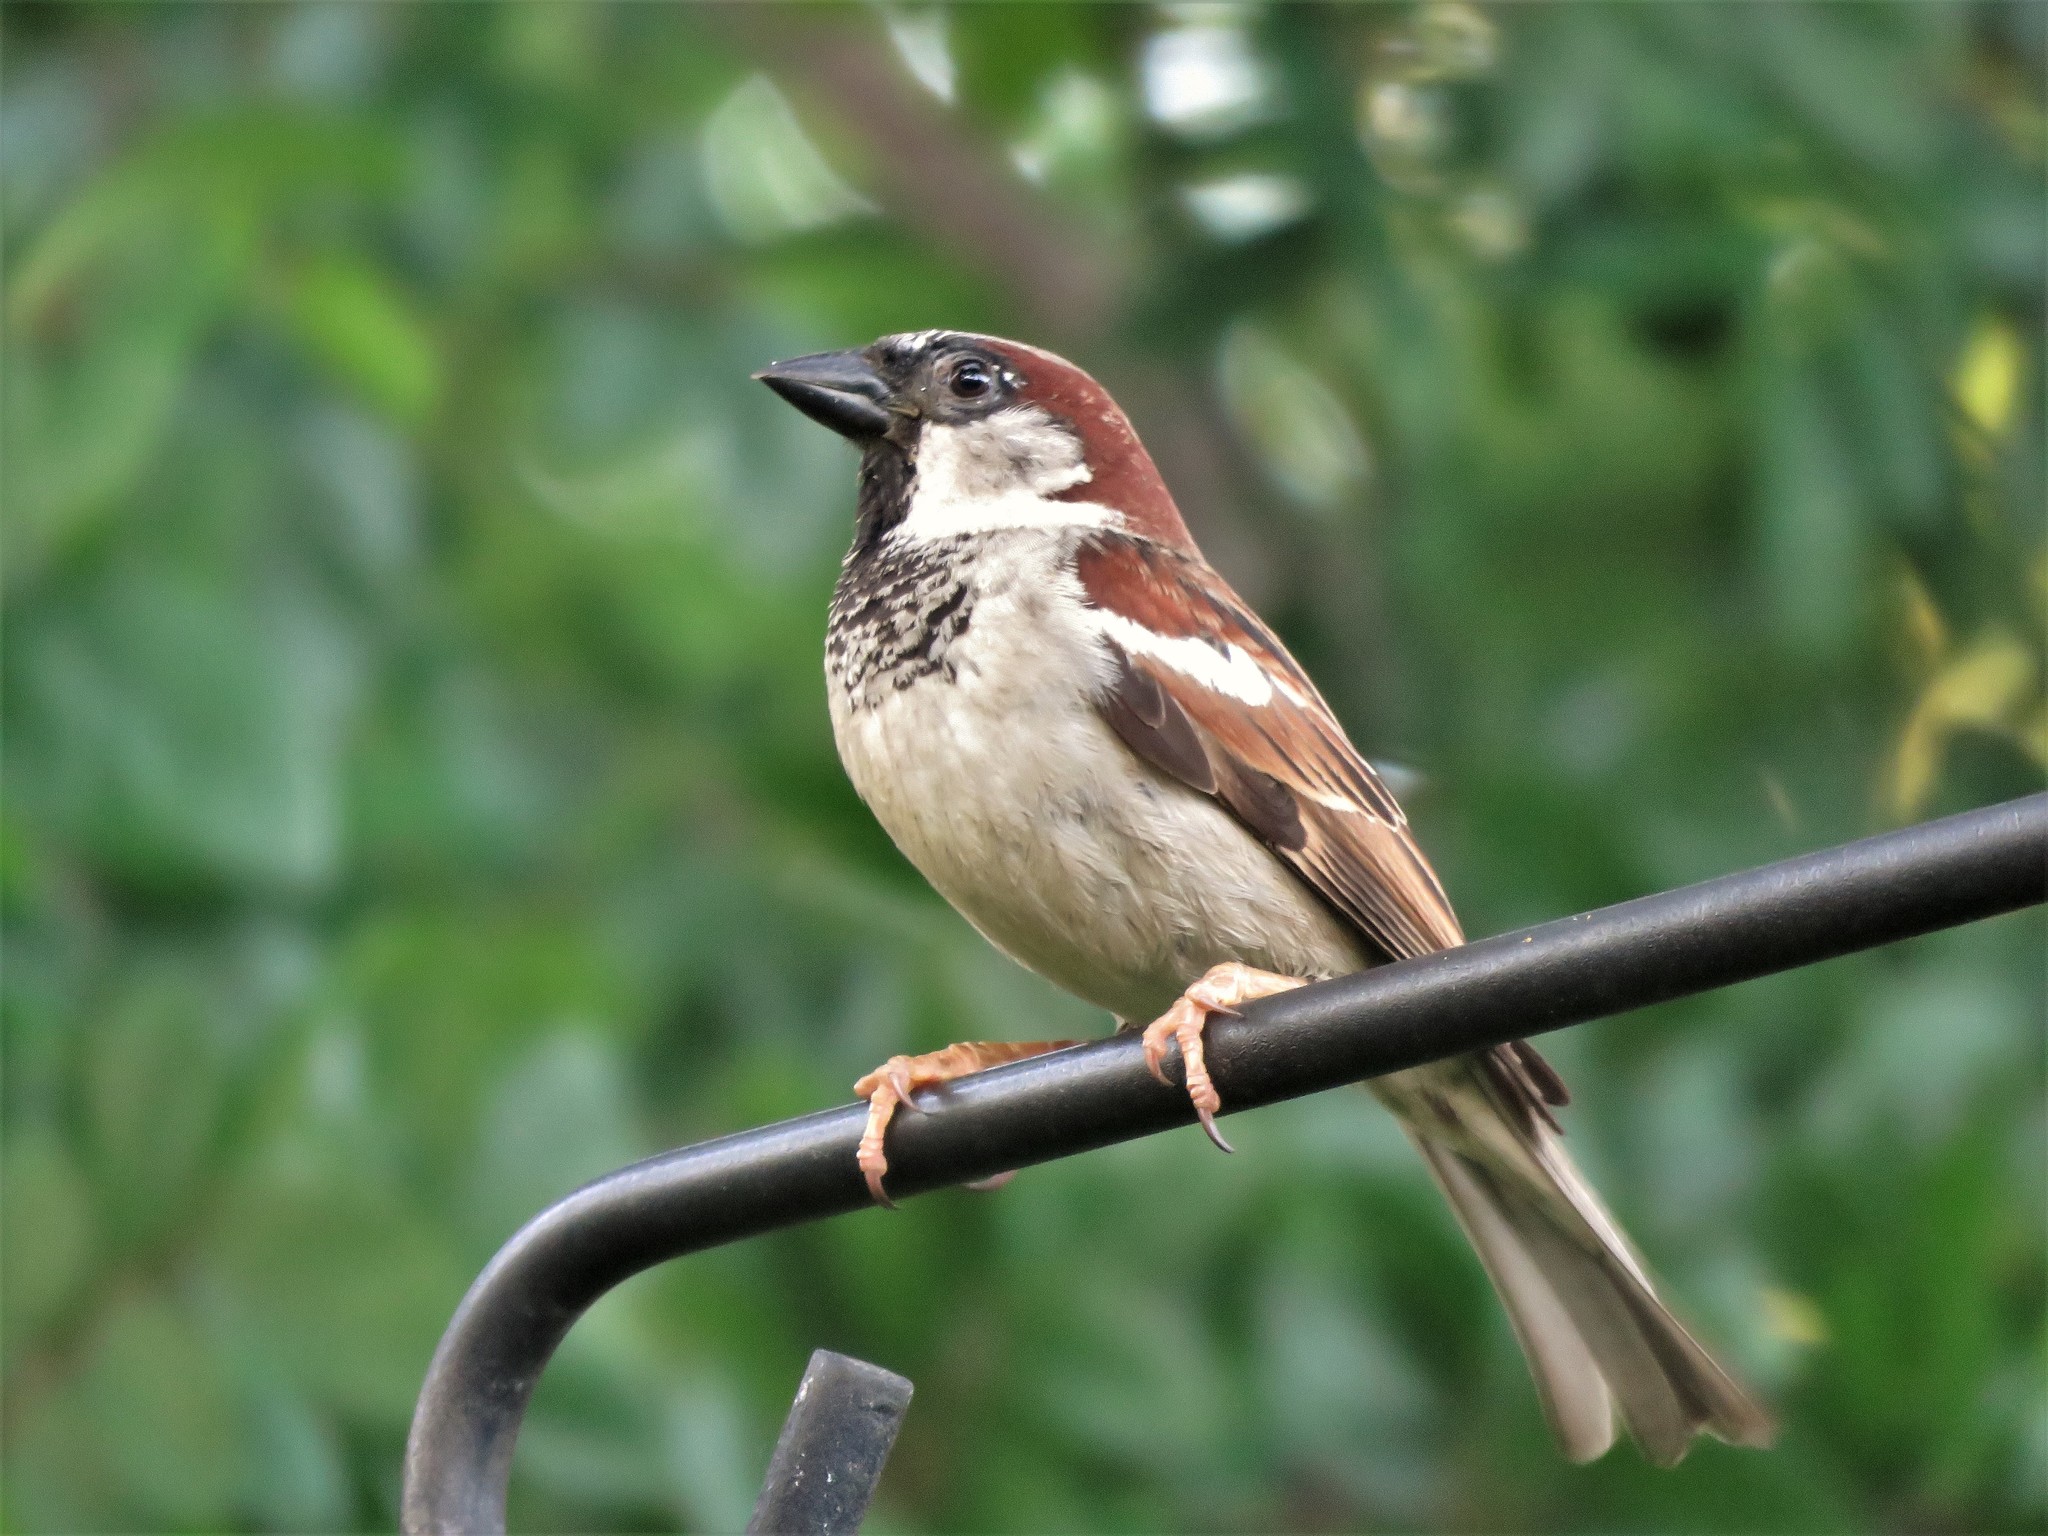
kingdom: Animalia
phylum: Chordata
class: Aves
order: Passeriformes
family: Passeridae
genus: Passer
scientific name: Passer domesticus
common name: House sparrow
